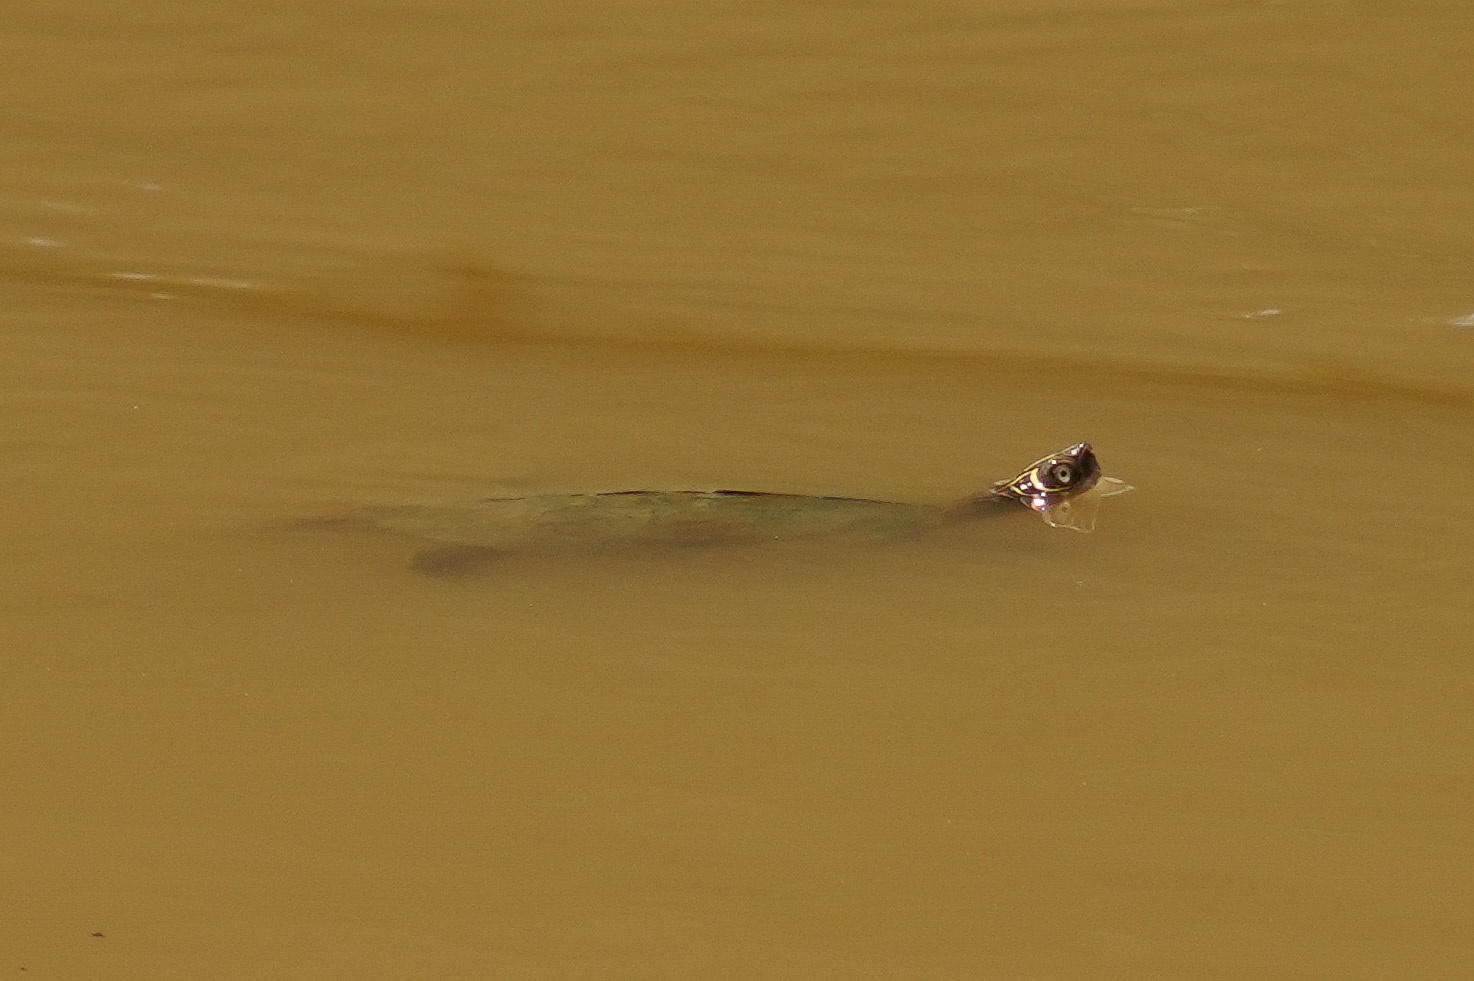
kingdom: Animalia
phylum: Chordata
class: Testudines
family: Emydidae
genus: Graptemys
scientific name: Graptemys pseudogeographica
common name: False map turtle
